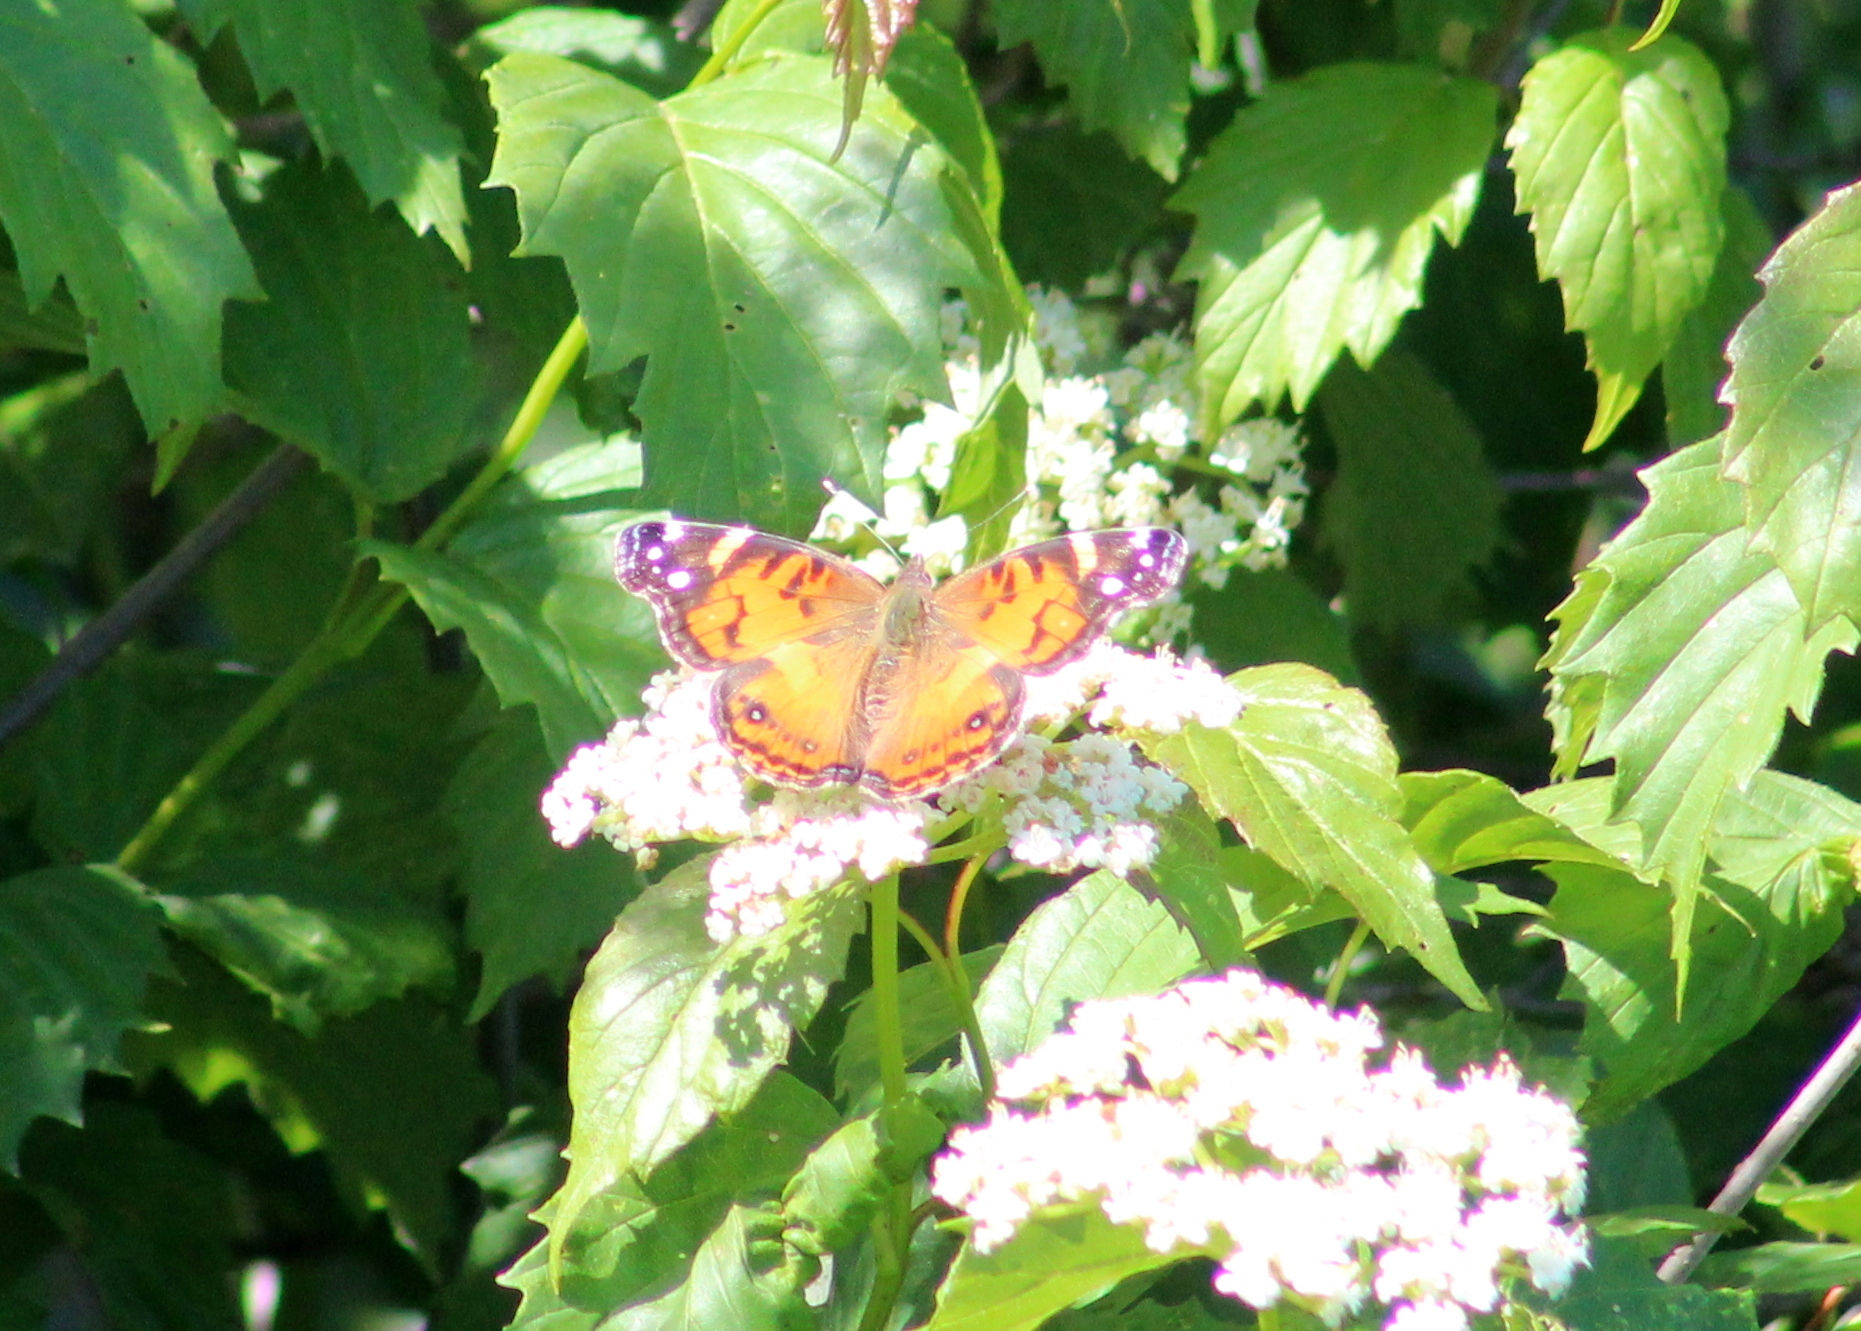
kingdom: Animalia
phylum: Arthropoda
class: Insecta
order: Lepidoptera
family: Nymphalidae
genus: Vanessa
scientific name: Vanessa virginiensis
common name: American lady
